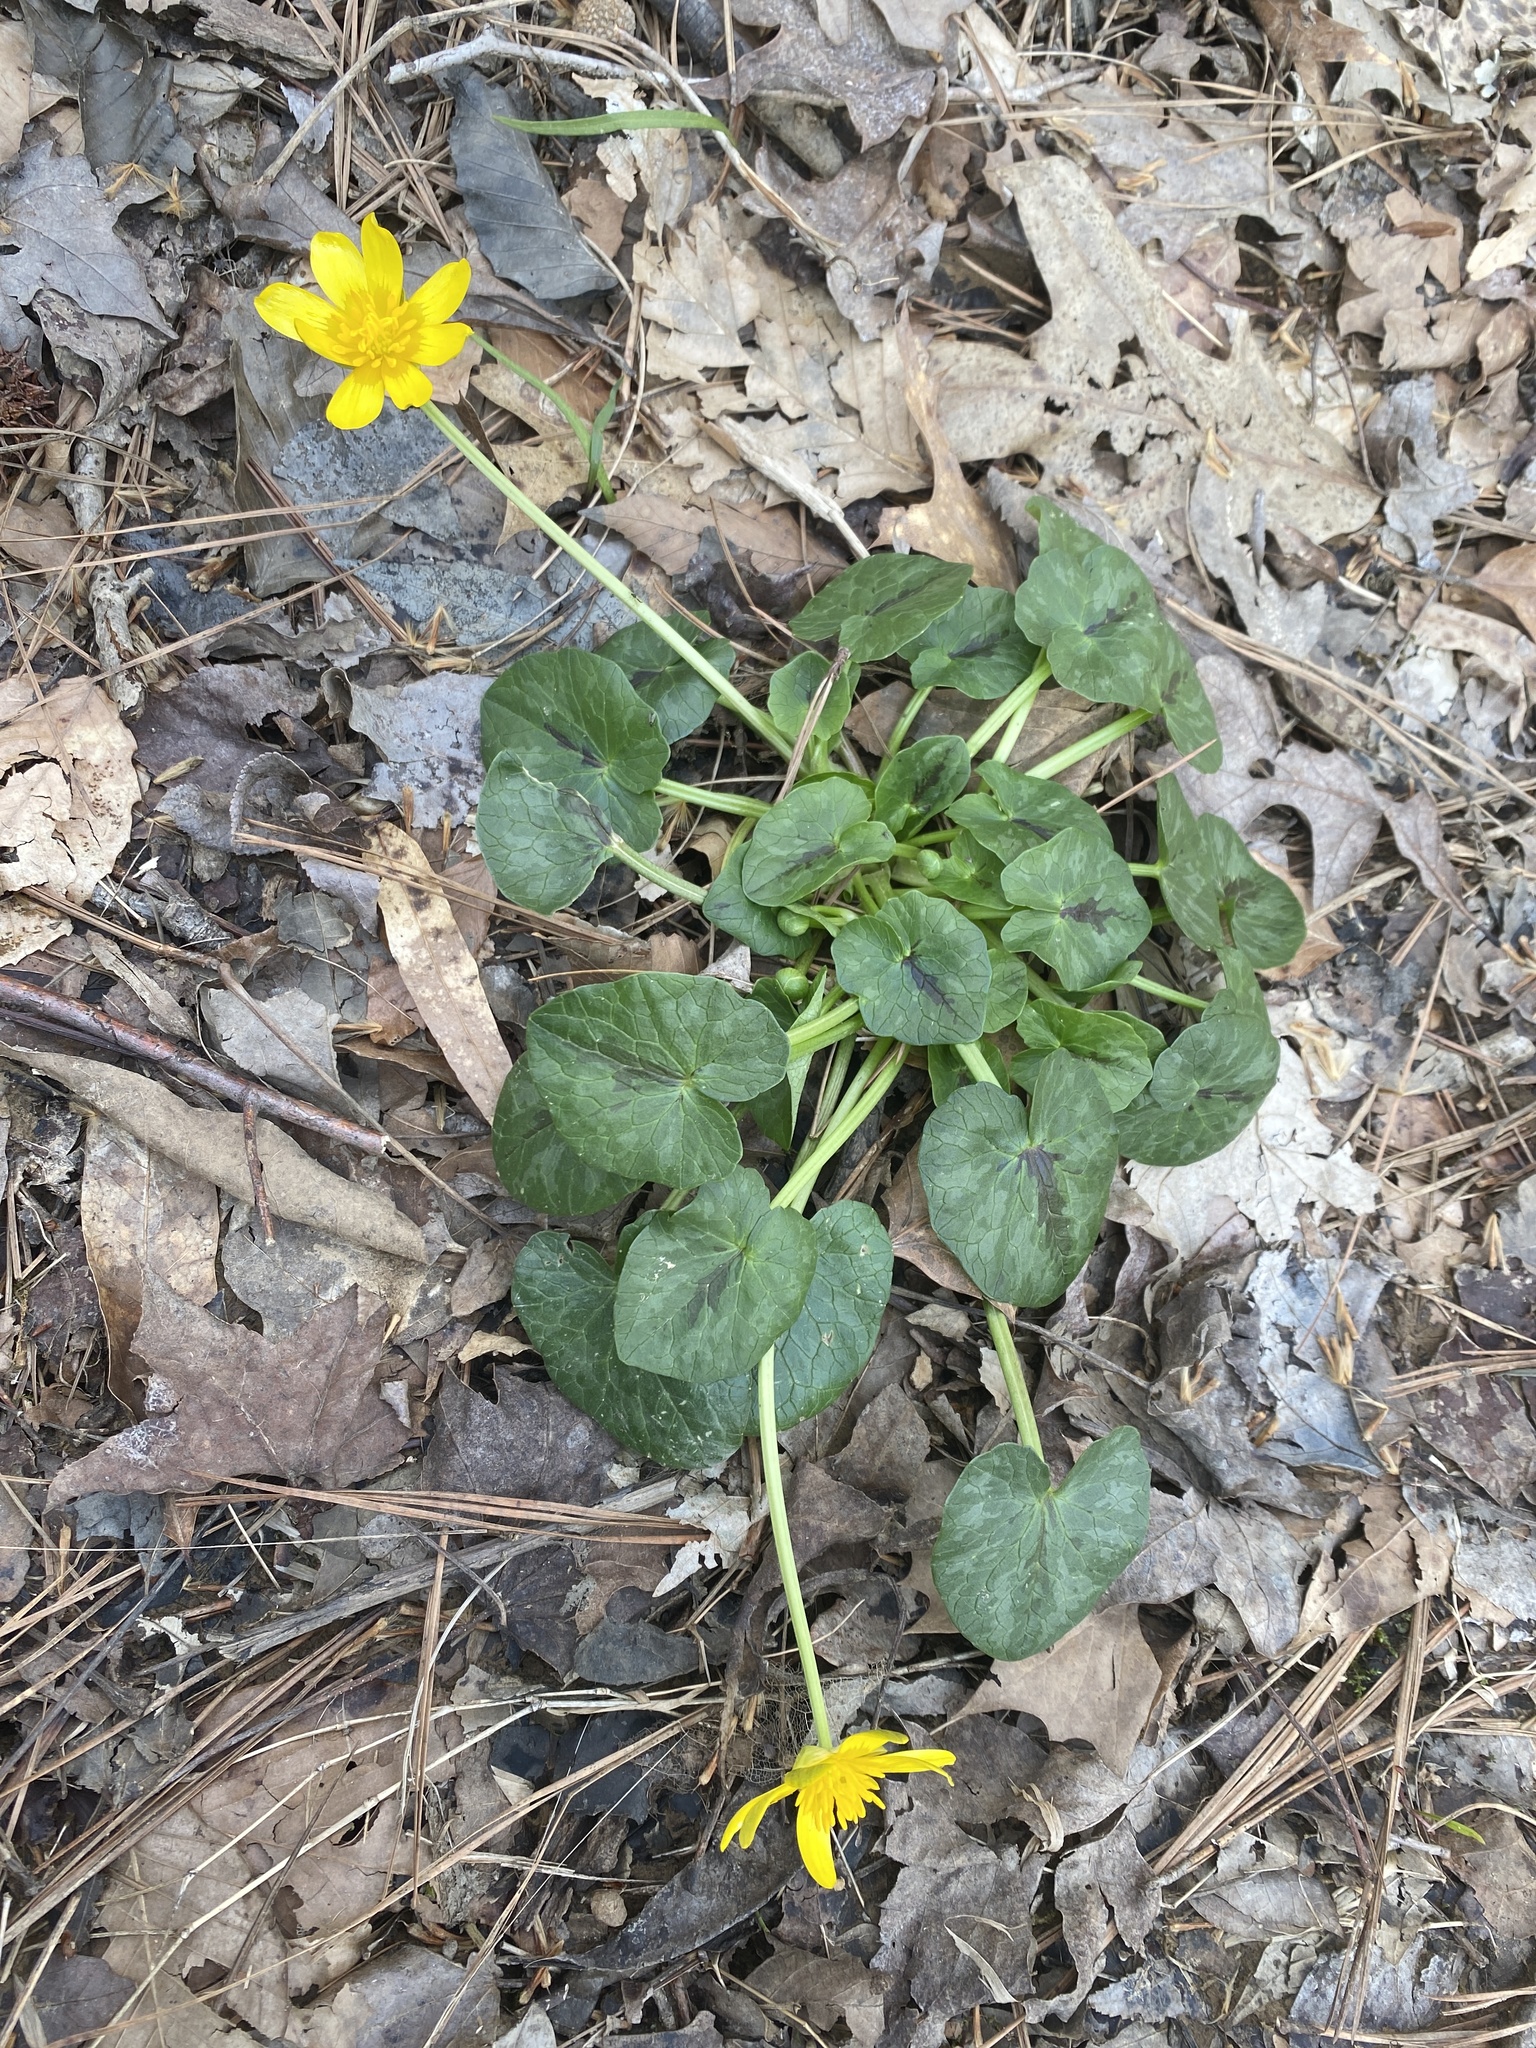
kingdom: Plantae
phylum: Tracheophyta
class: Magnoliopsida
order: Ranunculales
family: Ranunculaceae
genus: Ficaria
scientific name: Ficaria verna
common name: Lesser celandine
